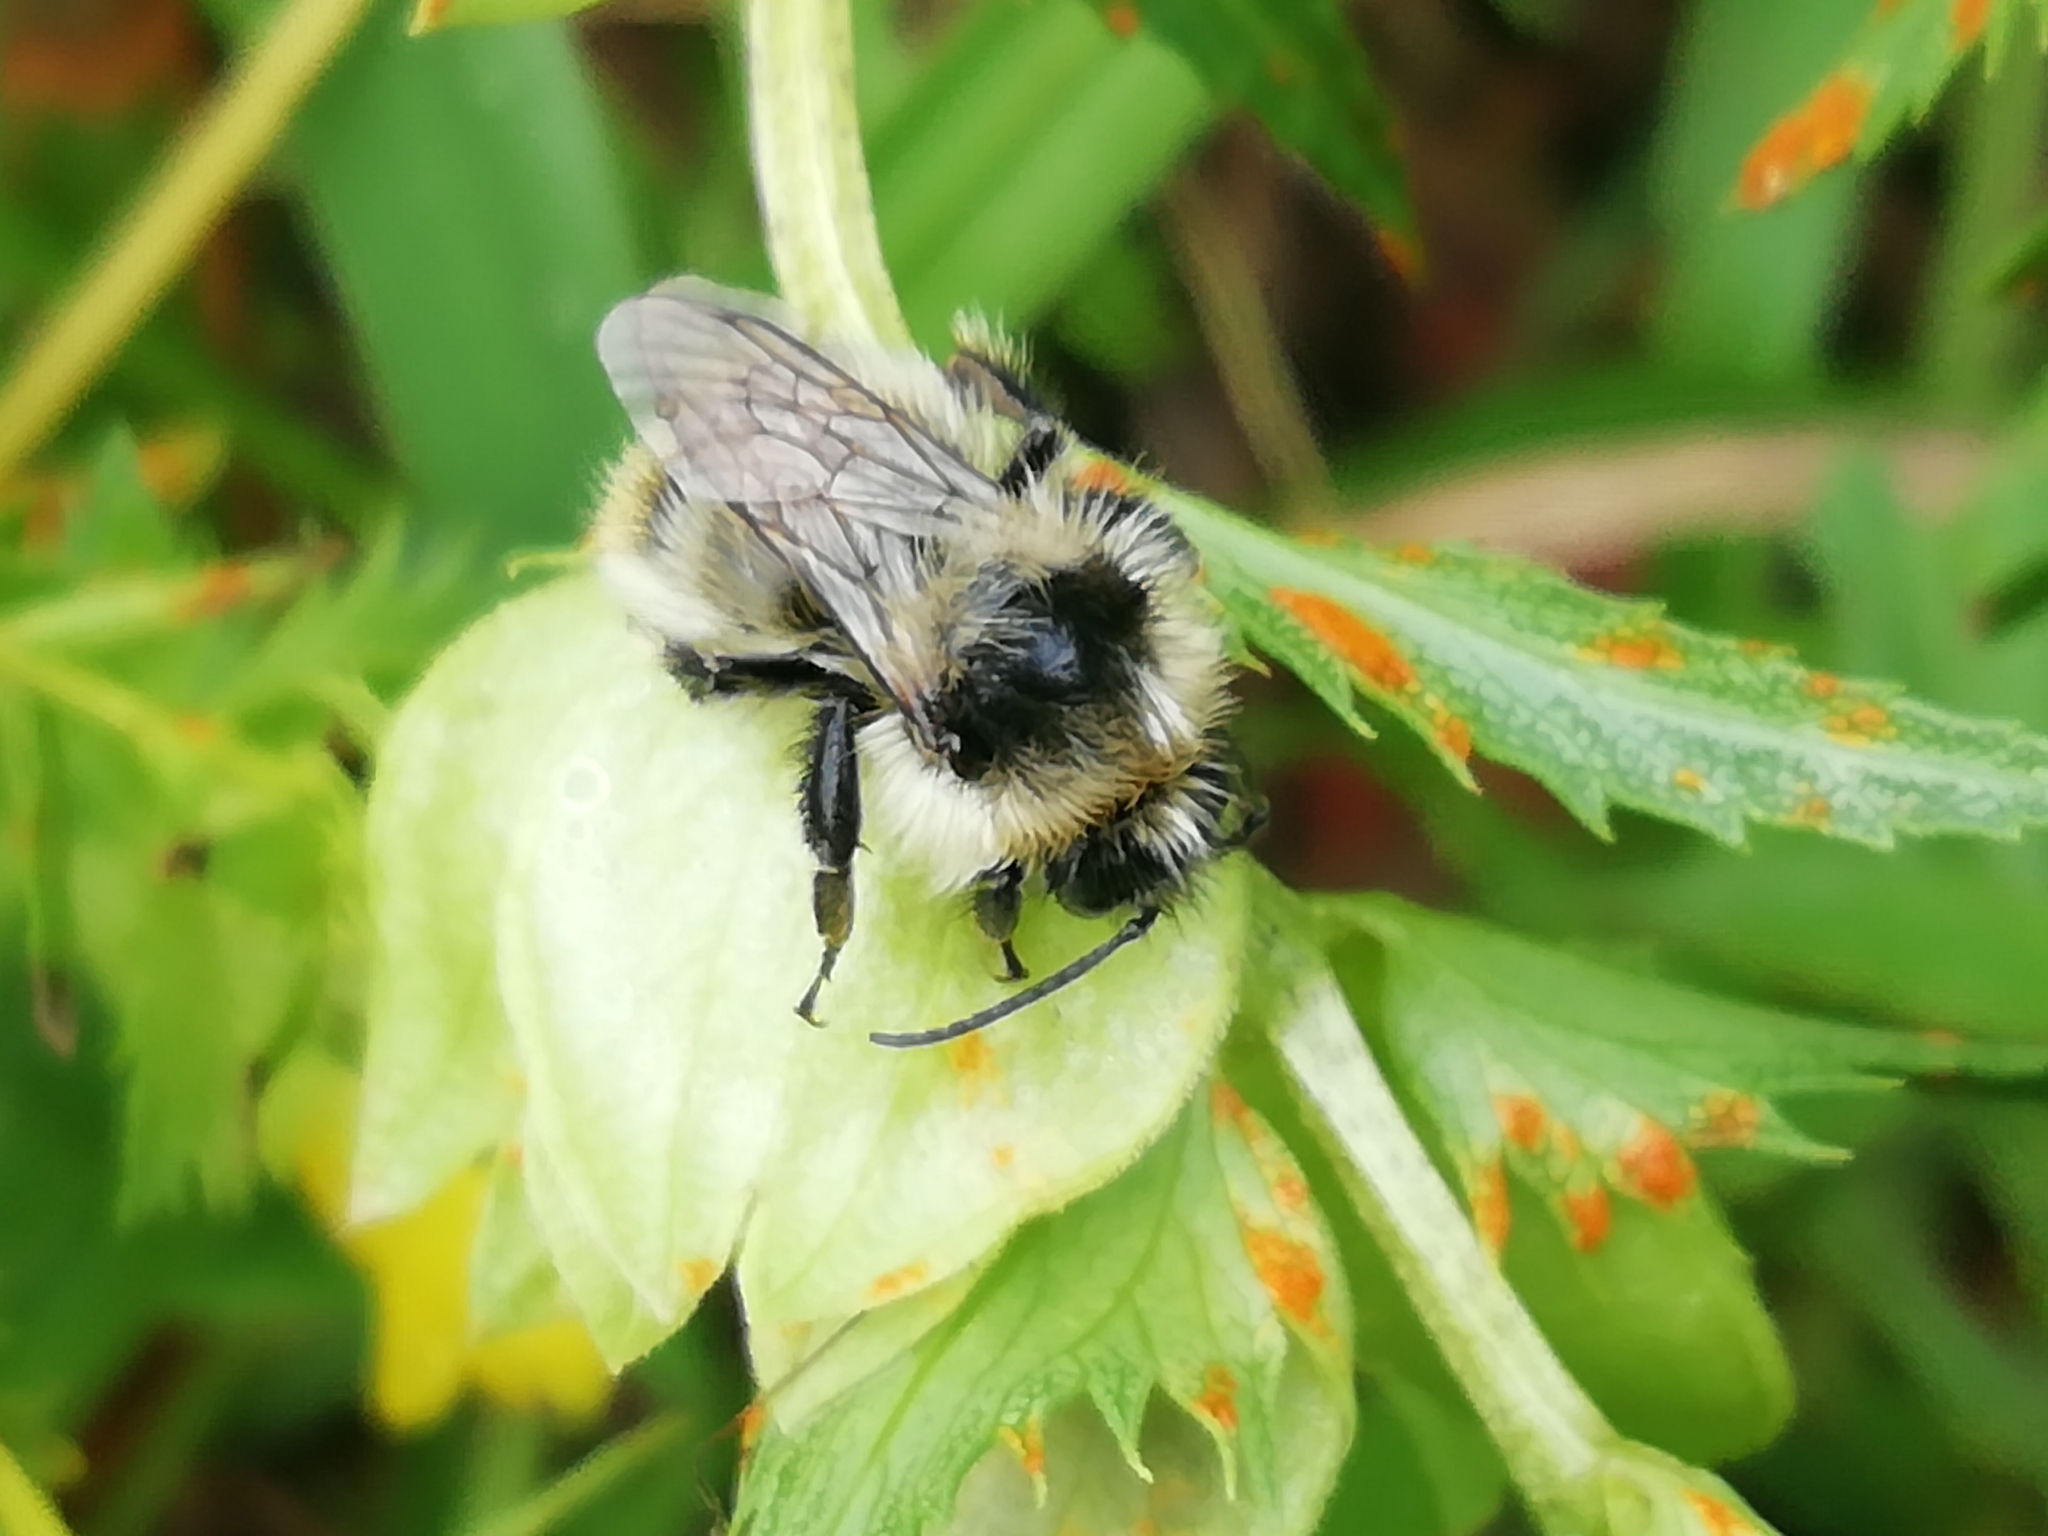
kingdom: Animalia
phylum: Arthropoda
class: Insecta
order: Hymenoptera
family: Apidae
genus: Bombus
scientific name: Bombus sylvarum
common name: Shrill carder bee
